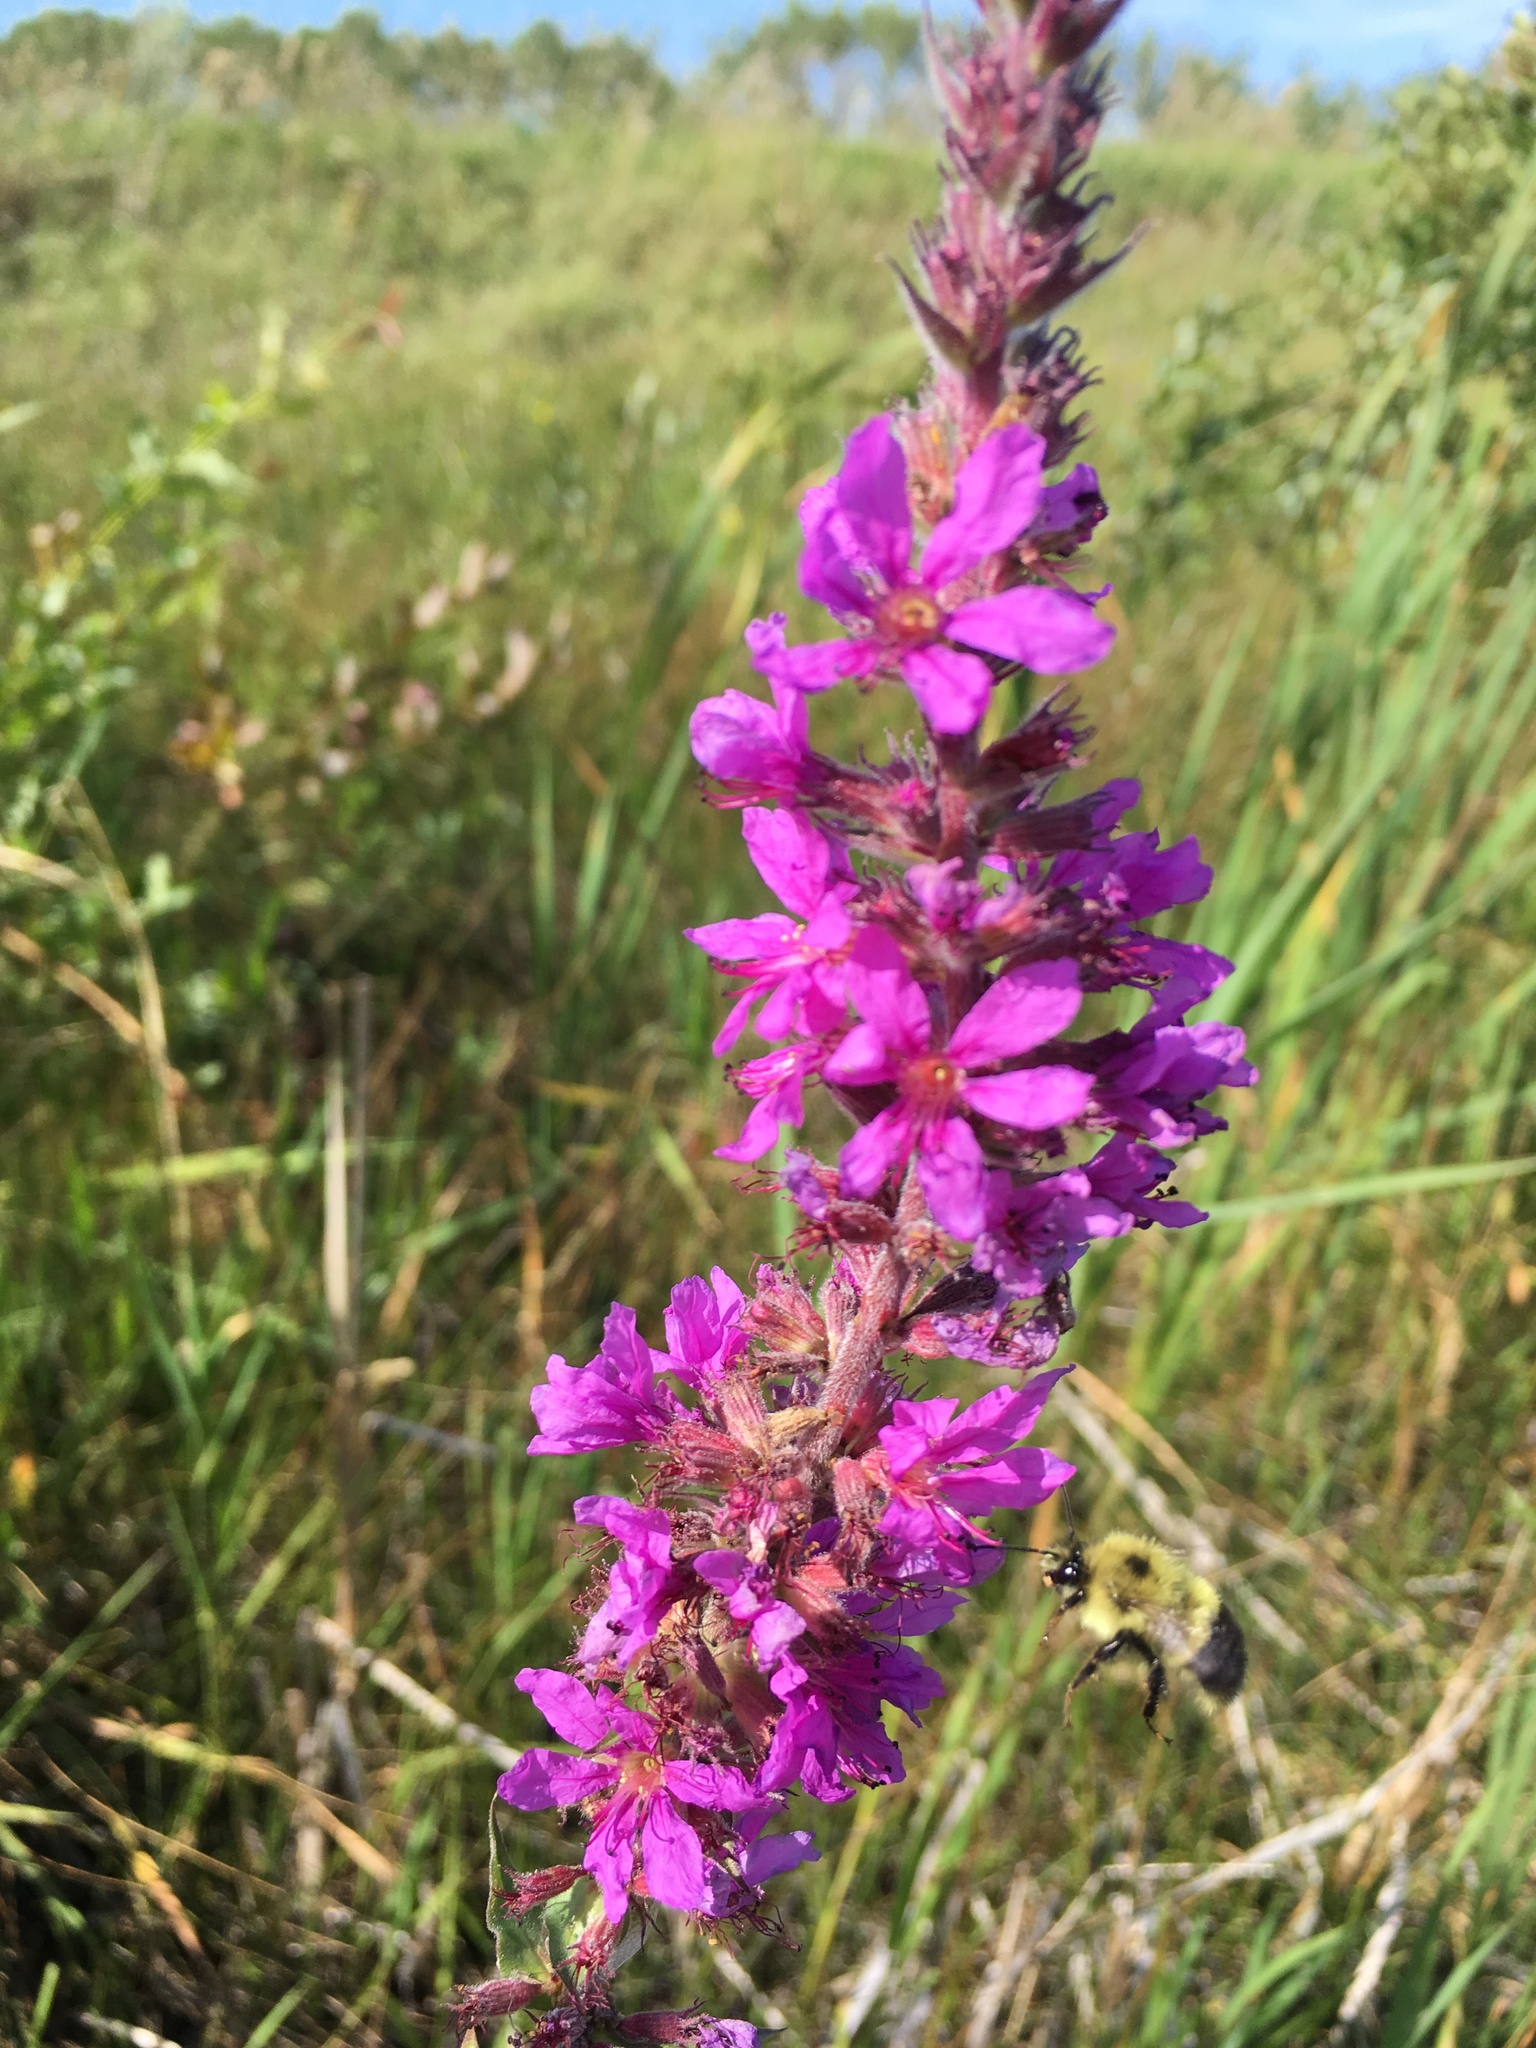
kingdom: Animalia
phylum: Arthropoda
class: Insecta
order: Hymenoptera
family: Apidae
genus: Pyrobombus
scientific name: Pyrobombus
